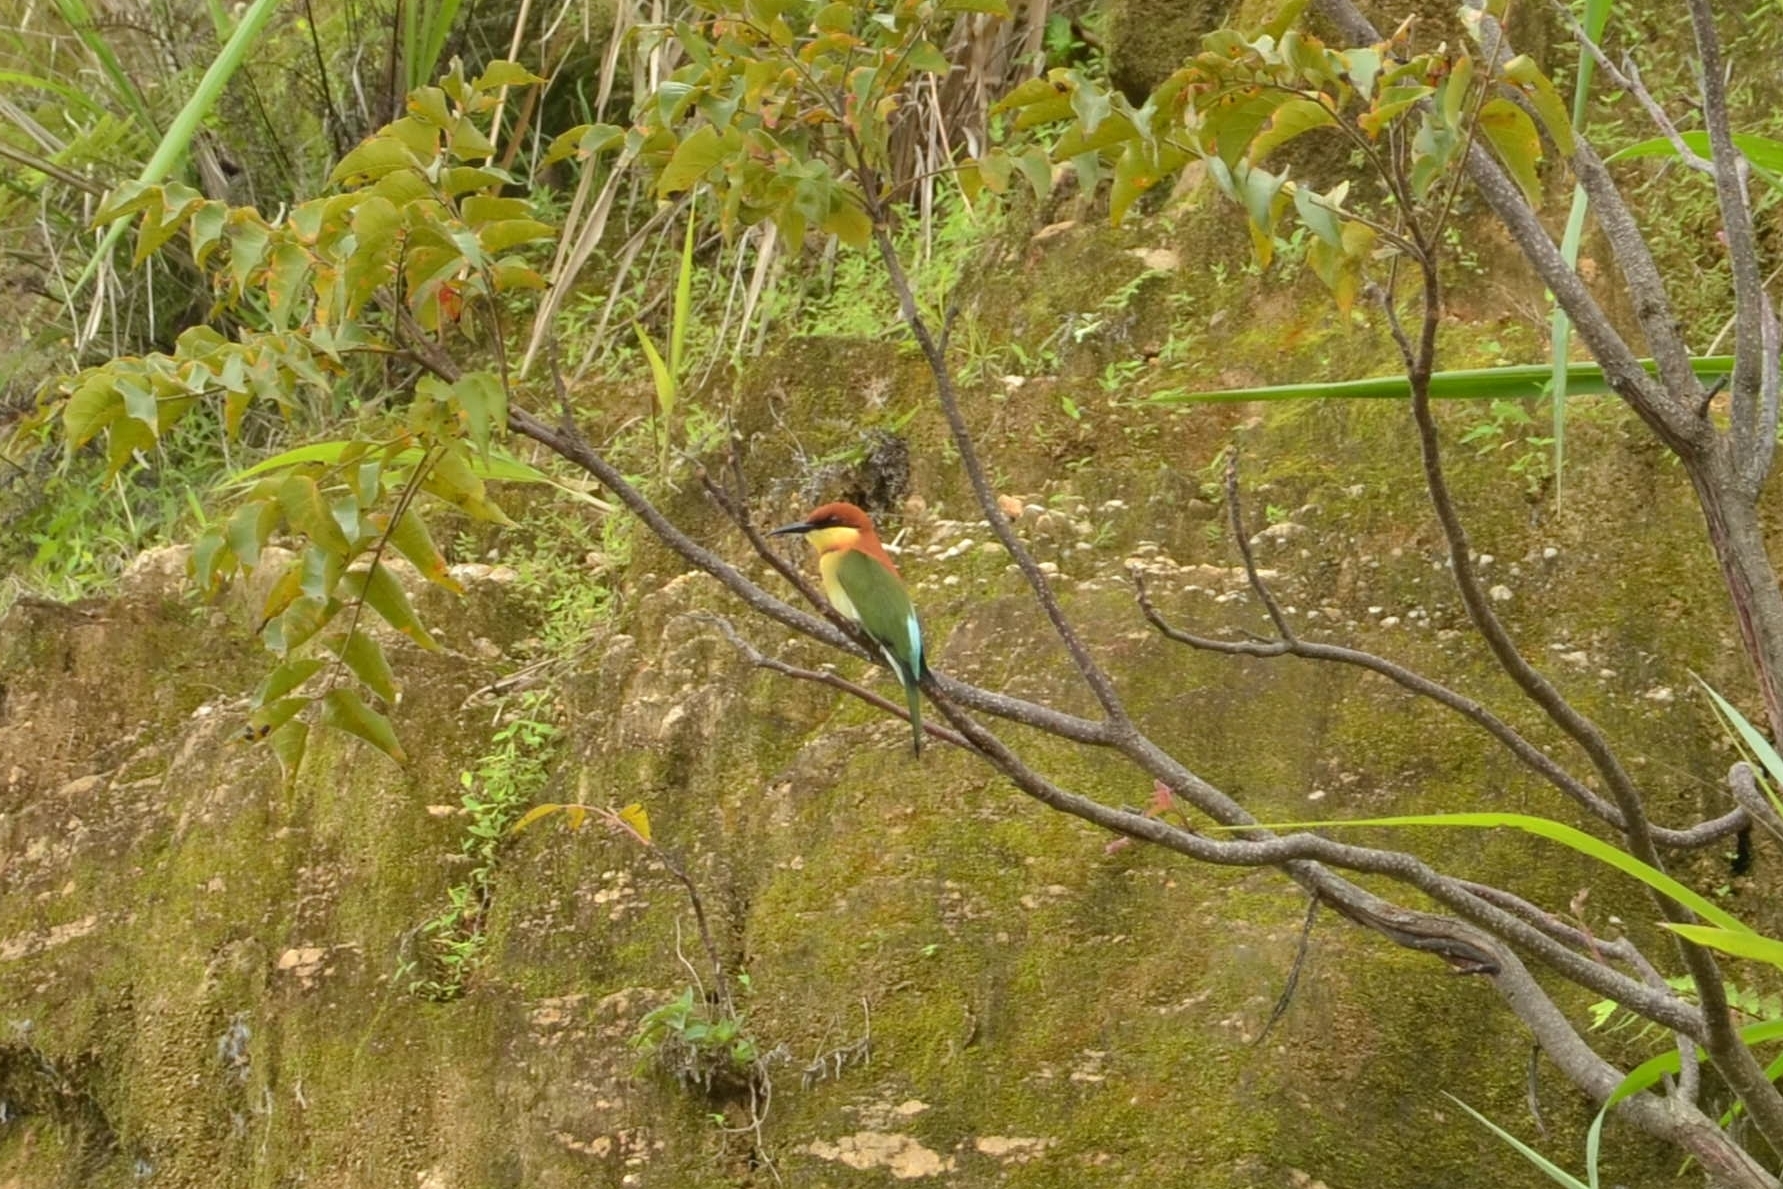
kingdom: Animalia
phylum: Chordata
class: Aves
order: Coraciiformes
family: Meropidae
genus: Merops
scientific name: Merops leschenaulti
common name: Chestnut-headed bee-eater
